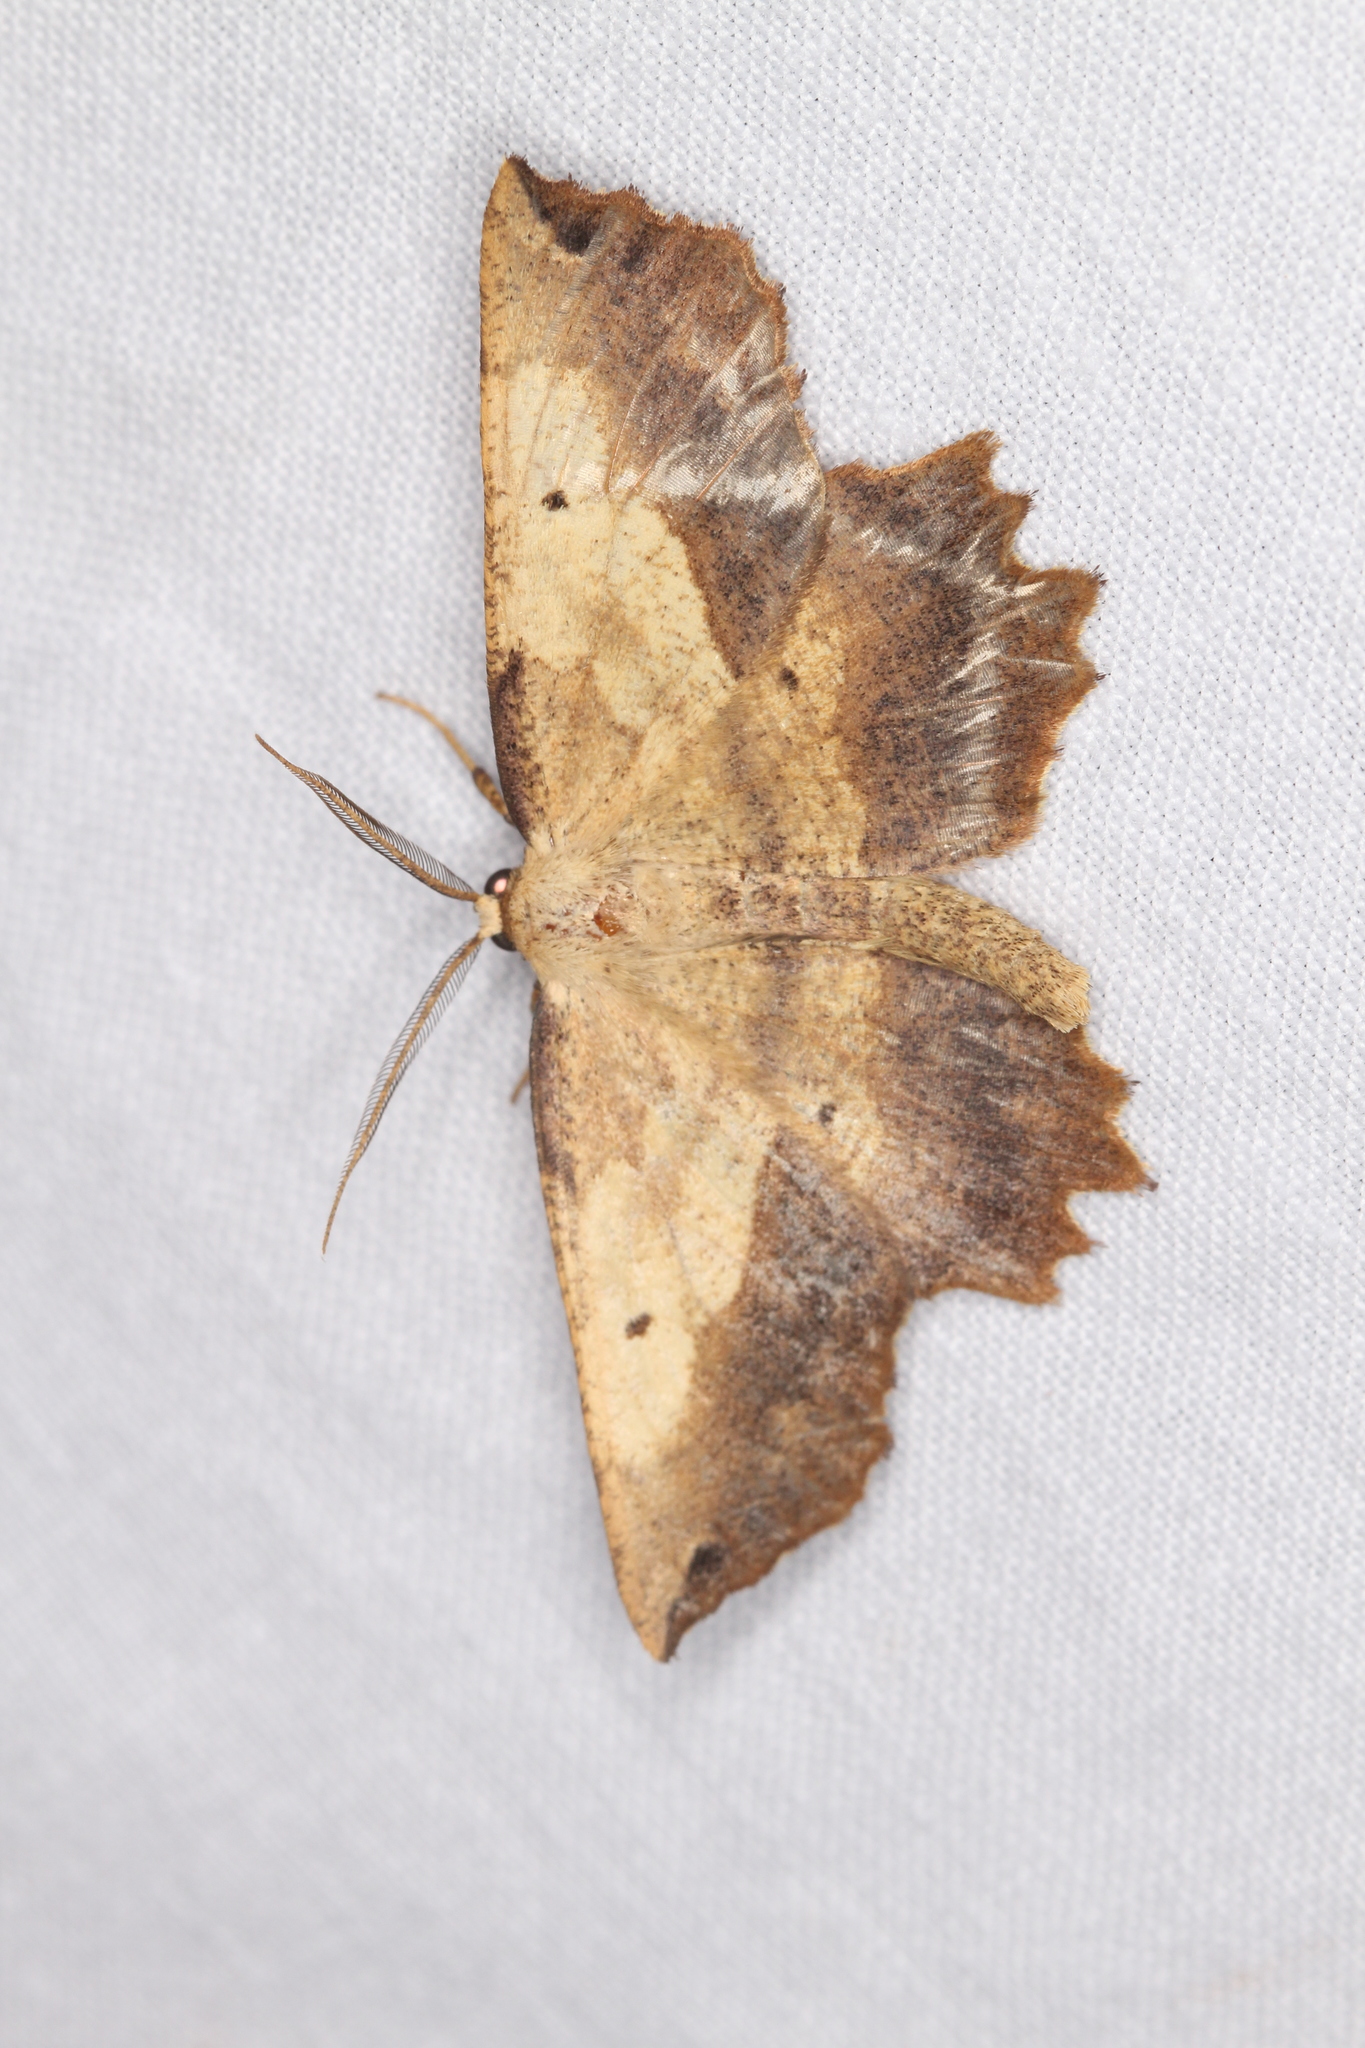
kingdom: Animalia
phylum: Arthropoda
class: Insecta
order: Lepidoptera
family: Geometridae
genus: Euchlaena
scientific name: Euchlaena muzaria
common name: Muzaria euchlaena
